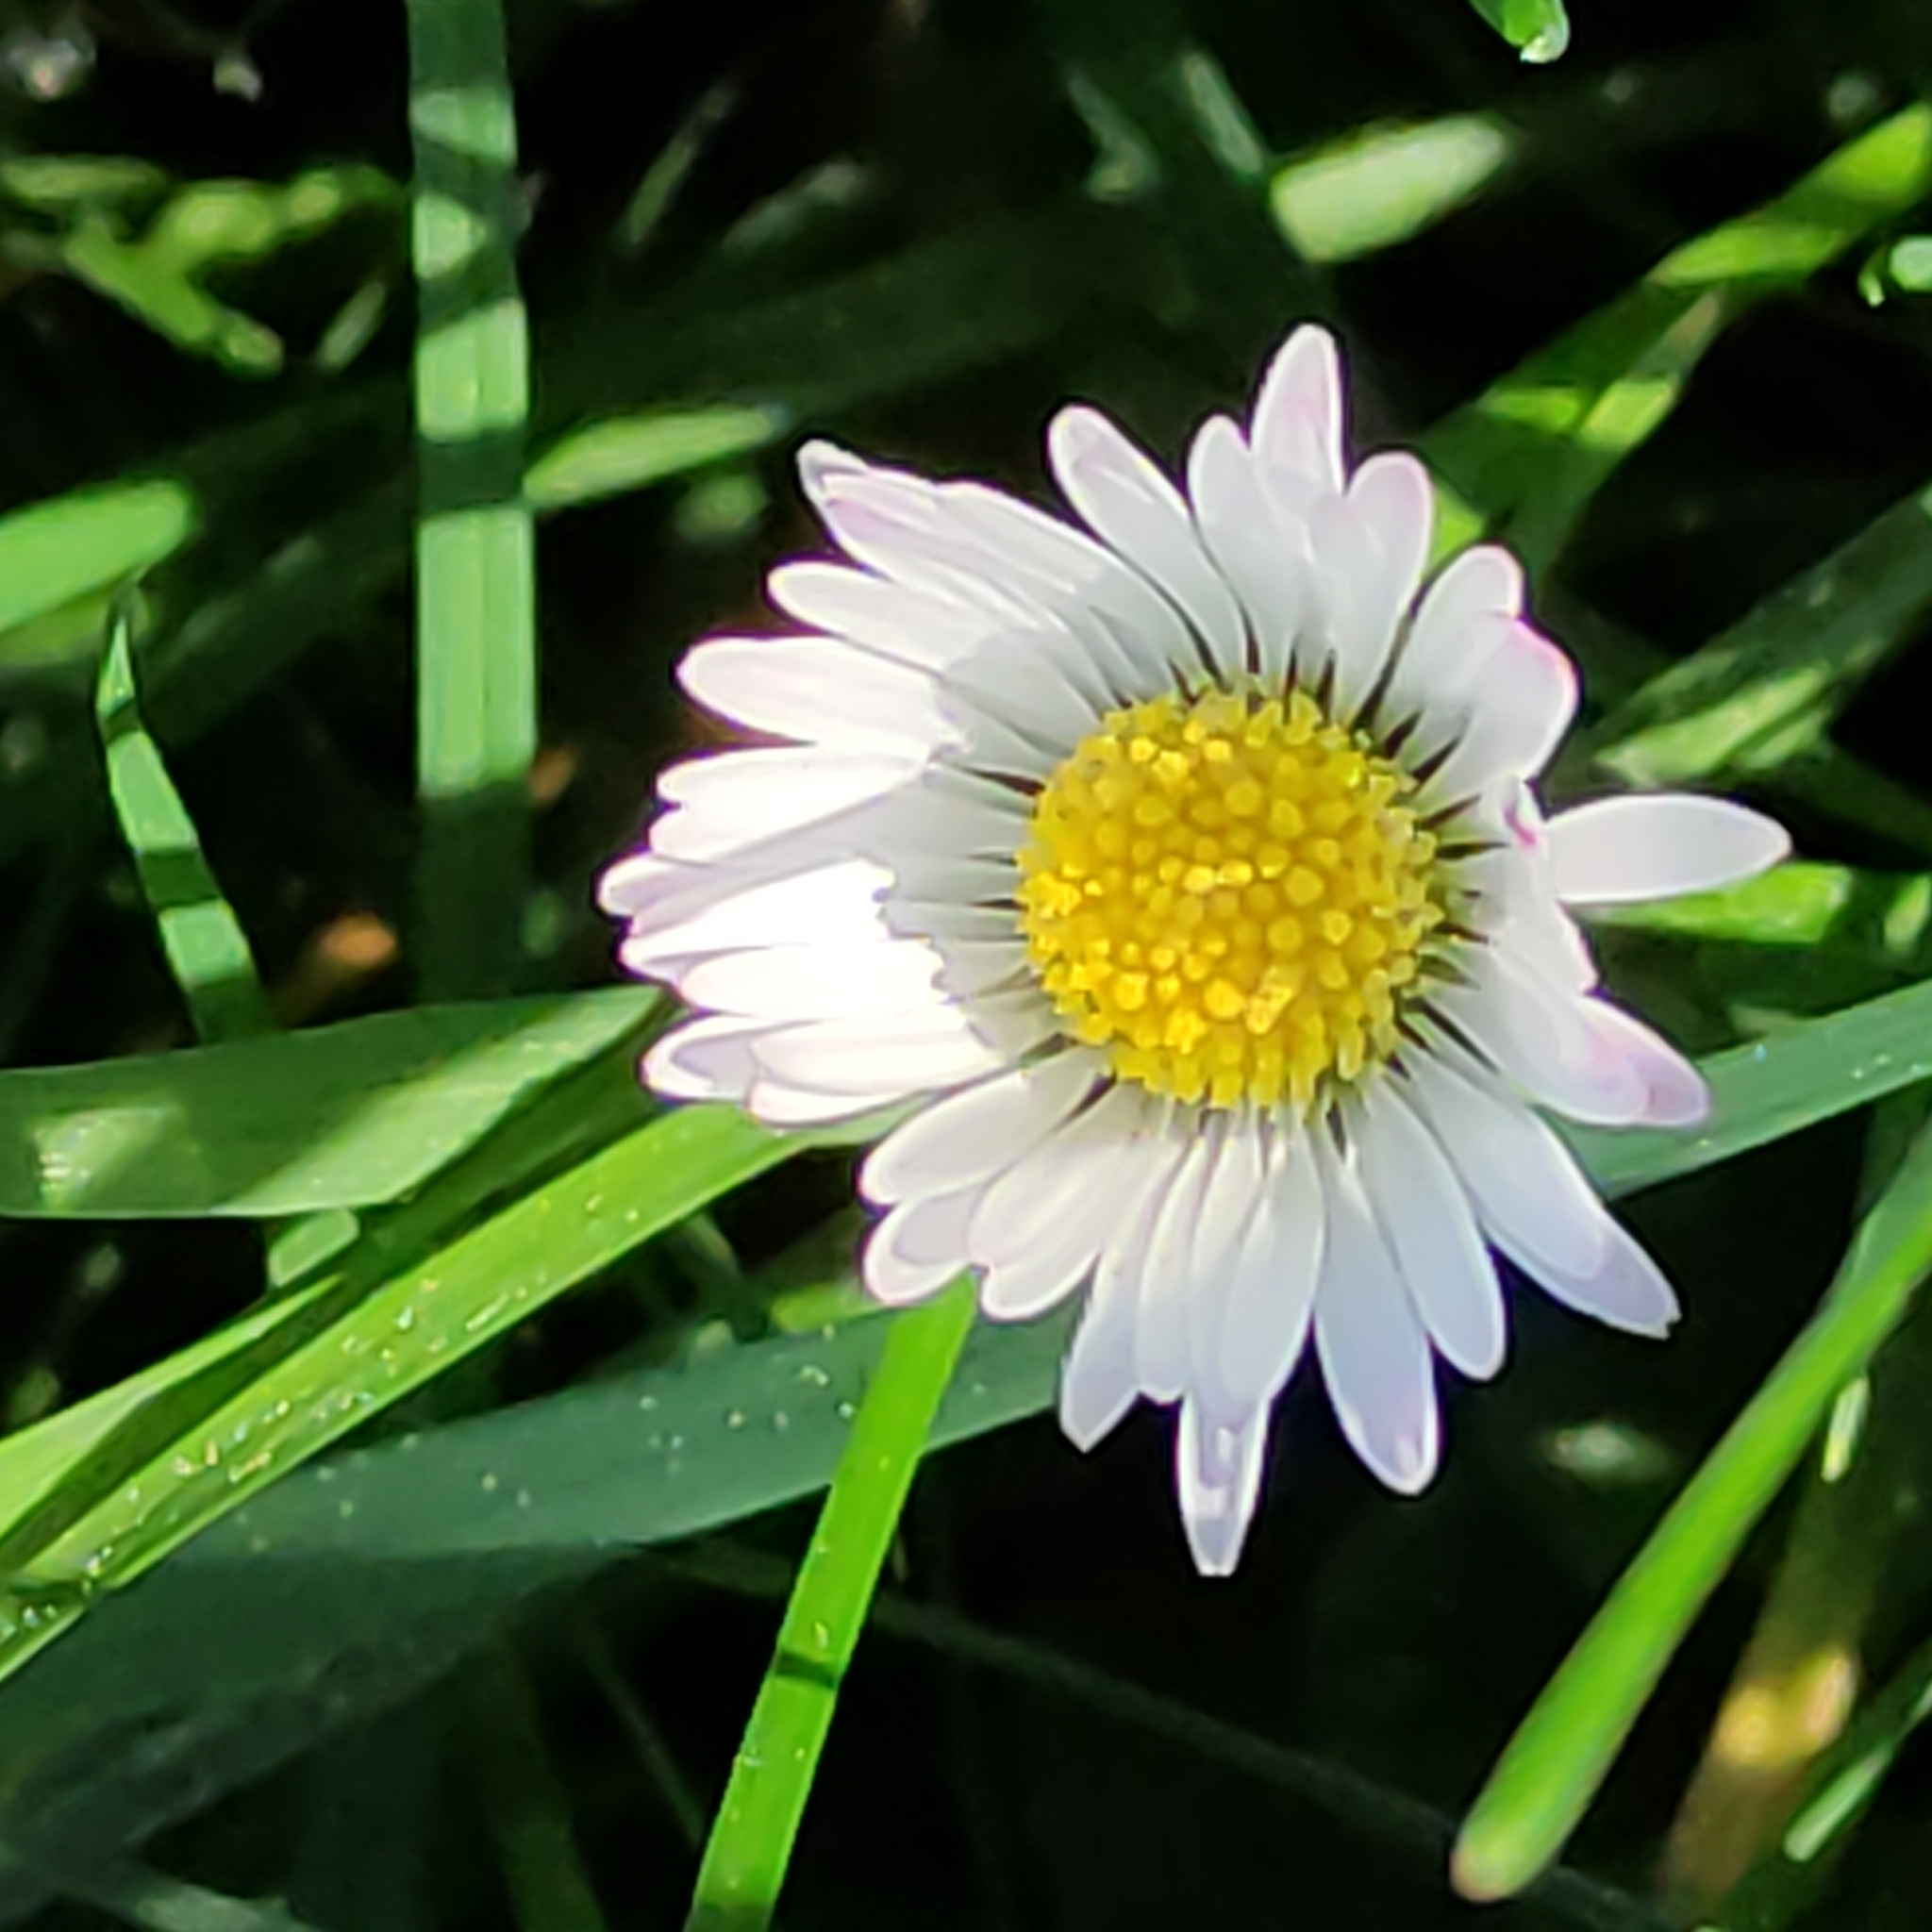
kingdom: Plantae
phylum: Tracheophyta
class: Magnoliopsida
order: Asterales
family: Asteraceae
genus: Bellis
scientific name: Bellis perennis
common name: Lawndaisy
